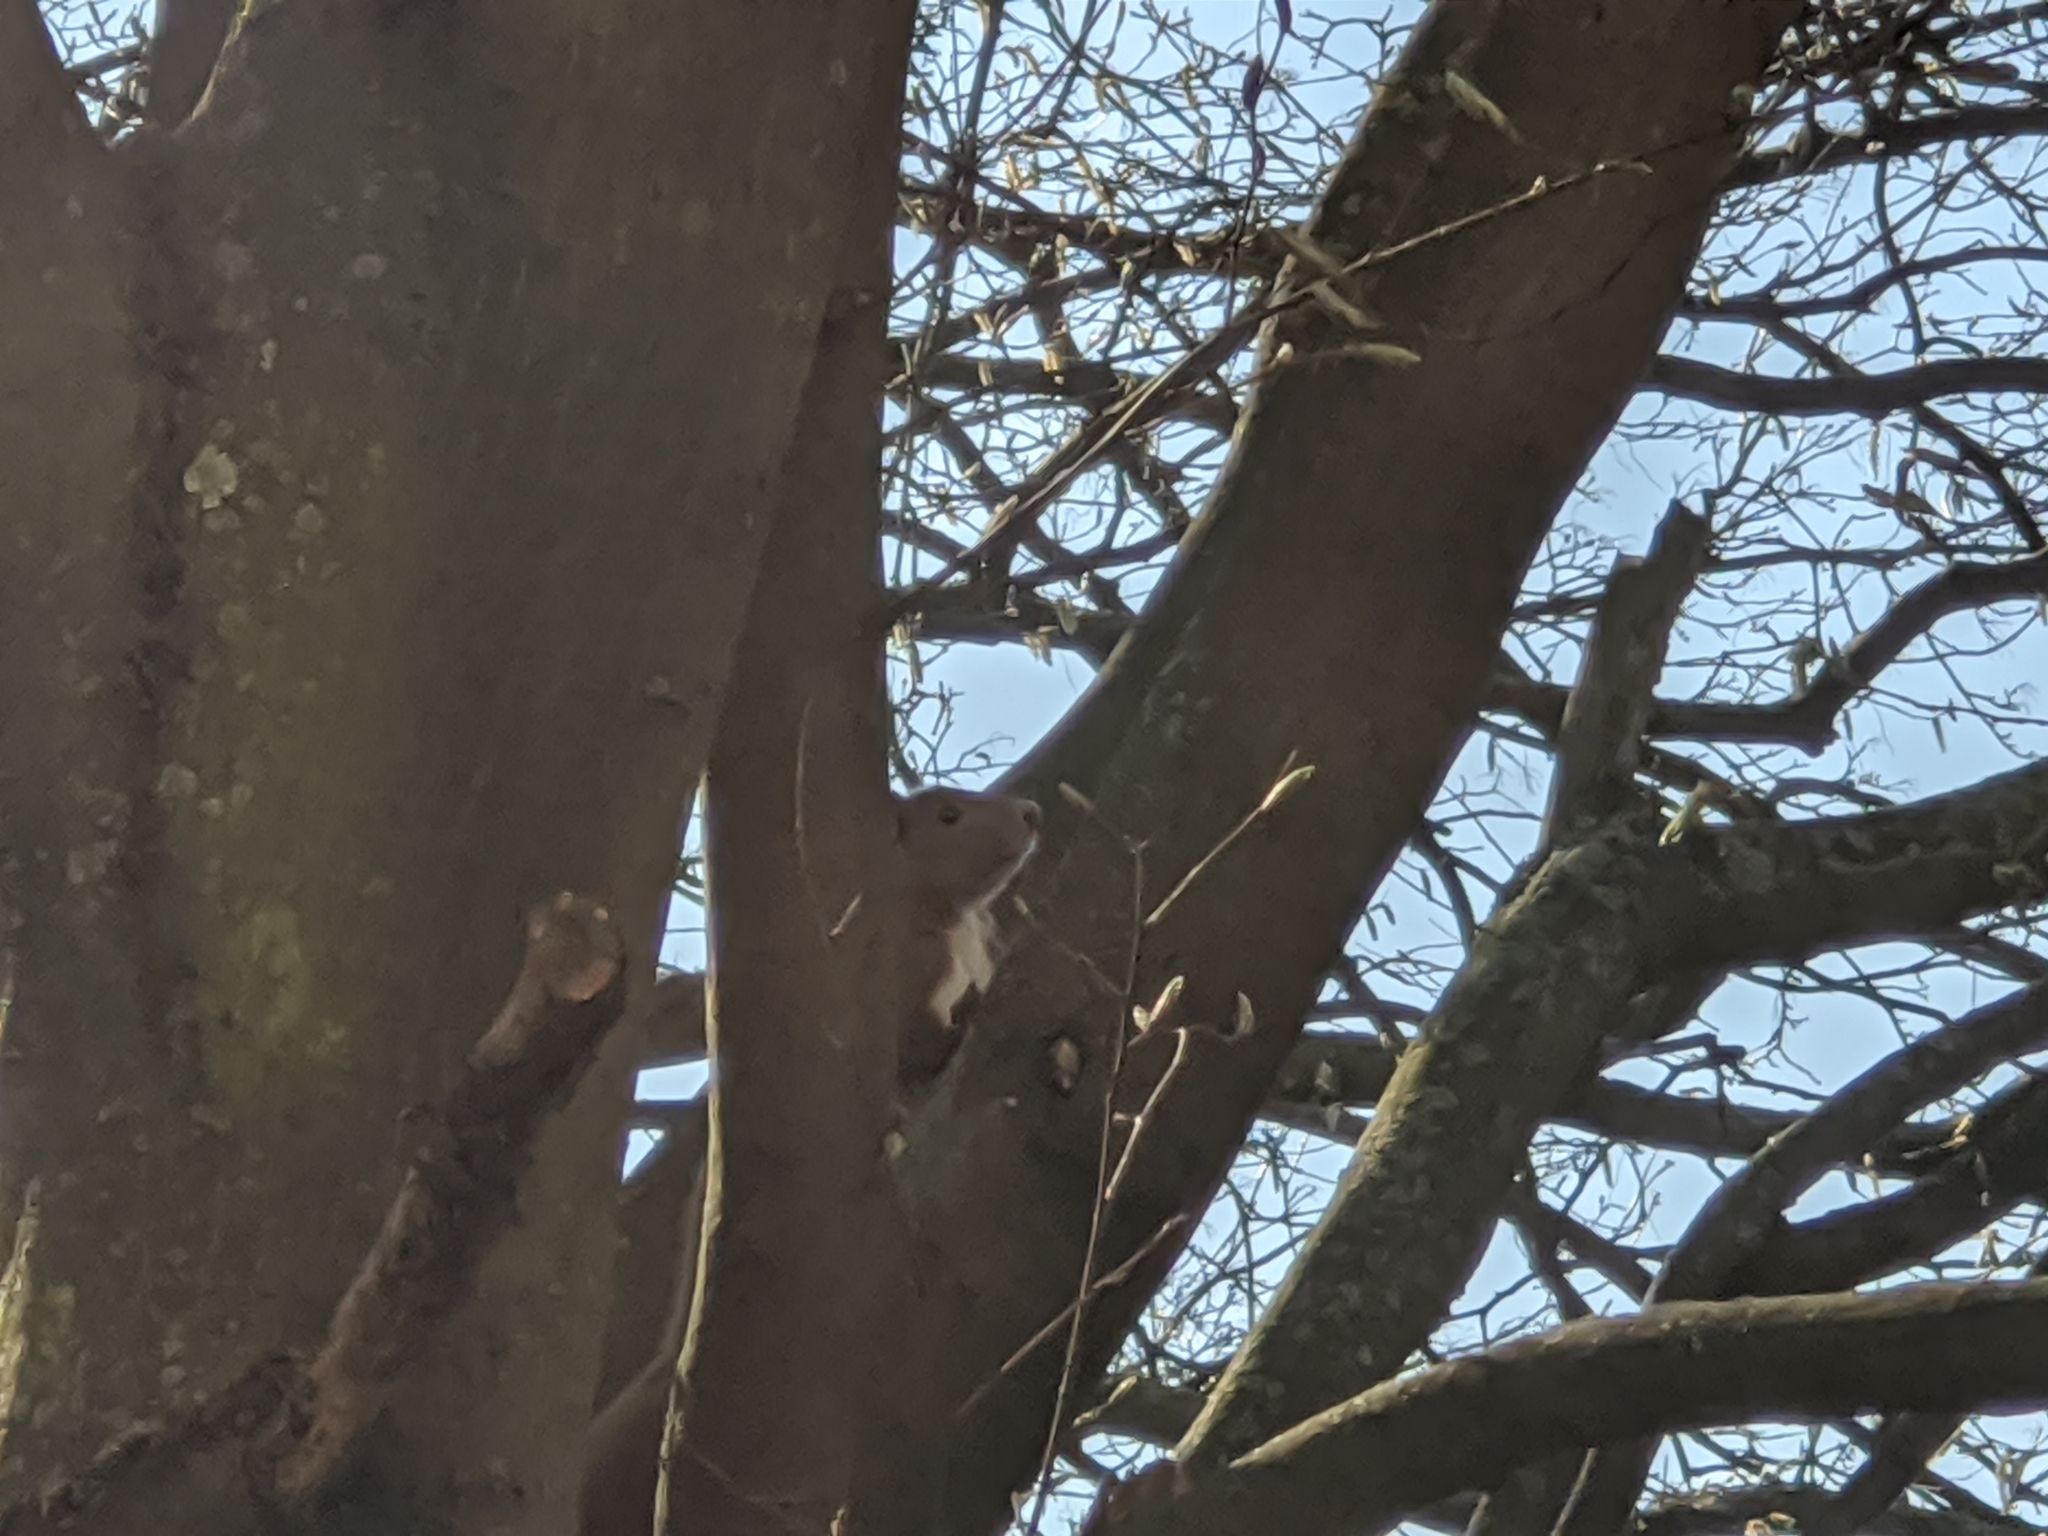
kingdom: Animalia
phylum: Chordata
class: Mammalia
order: Rodentia
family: Sciuridae
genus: Sciurus
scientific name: Sciurus vulgaris
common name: Eurasian red squirrel
